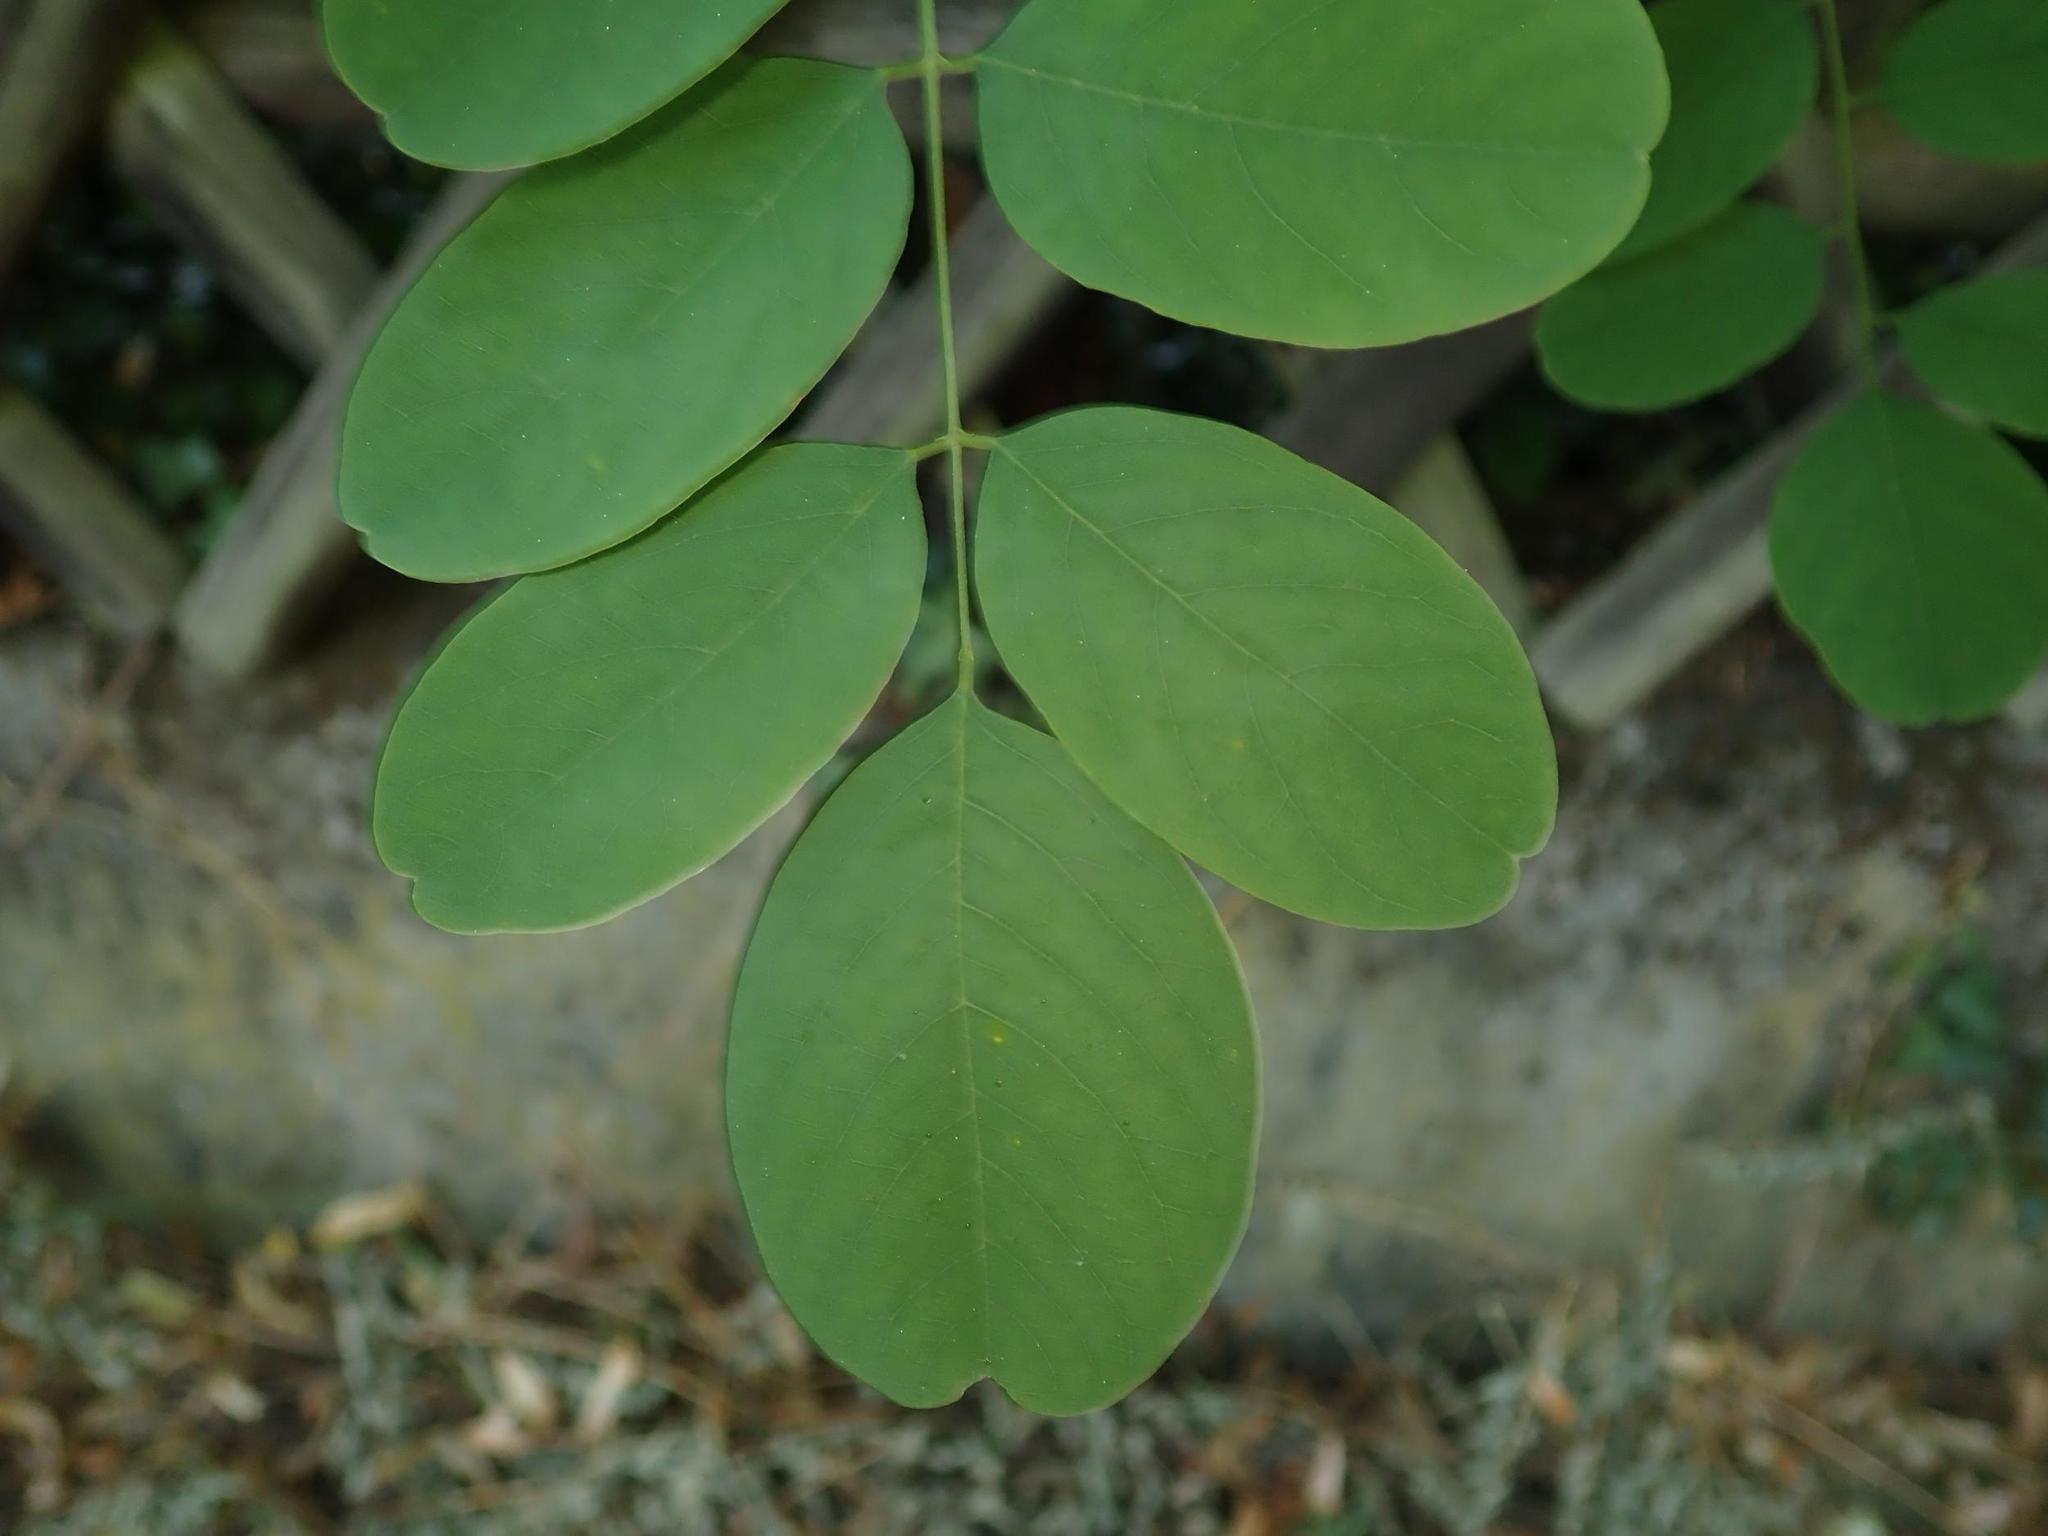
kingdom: Plantae
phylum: Tracheophyta
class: Magnoliopsida
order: Fabales
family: Fabaceae
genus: Robinia
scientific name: Robinia pseudoacacia
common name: Black locust
